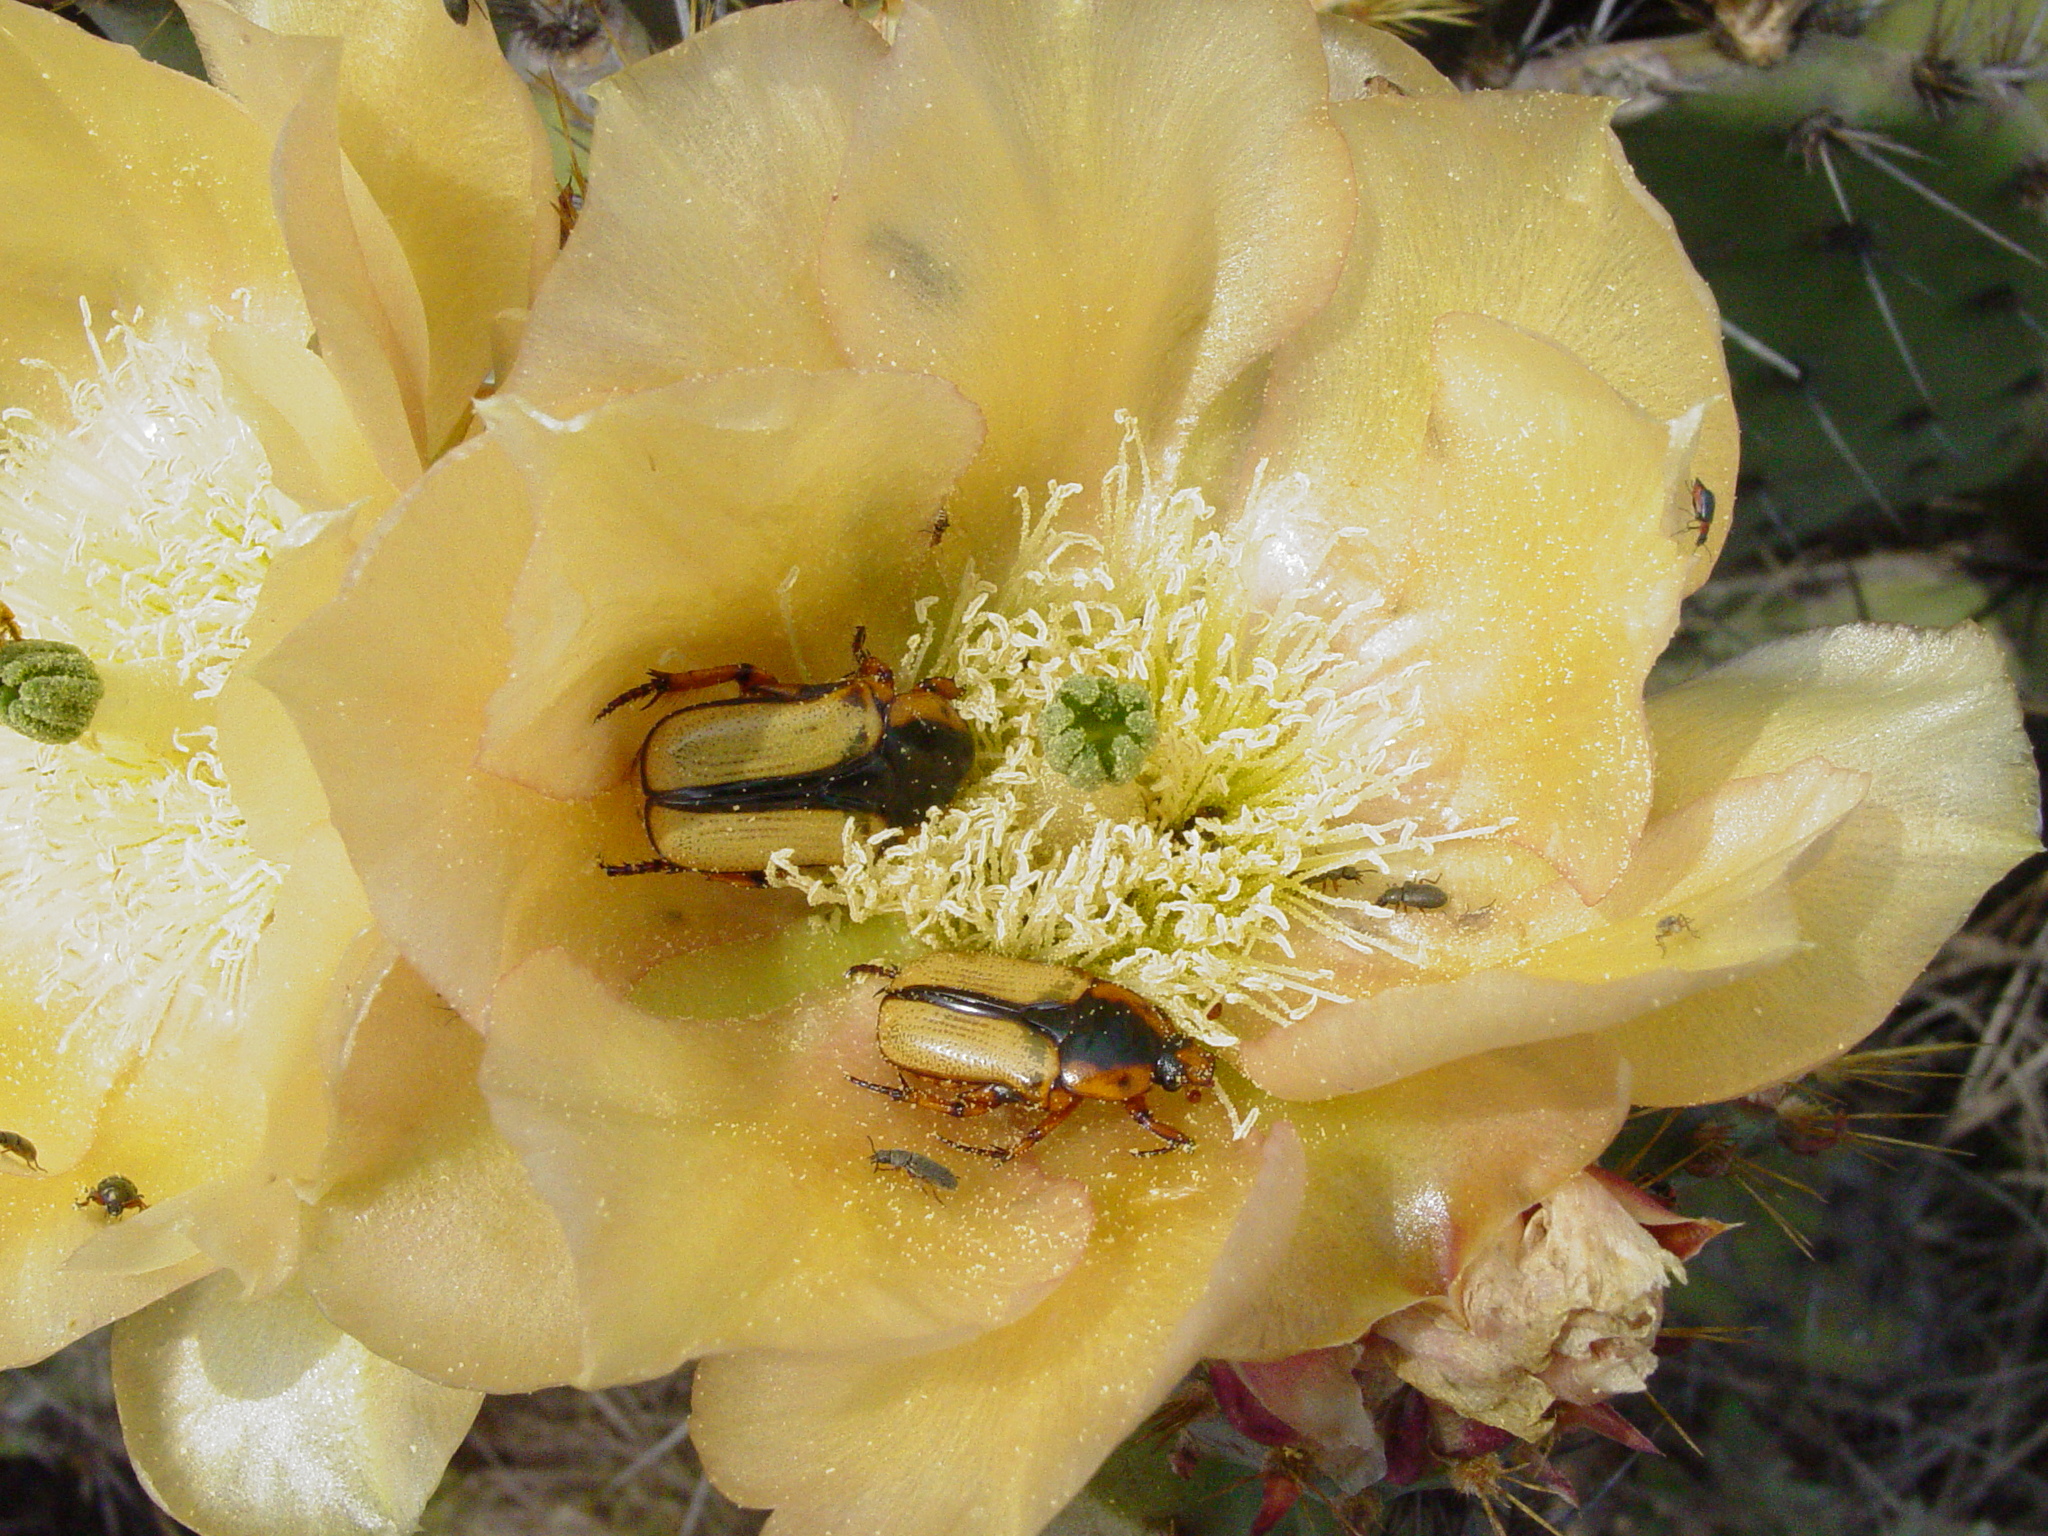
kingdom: Animalia
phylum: Arthropoda
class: Insecta
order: Coleoptera
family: Scarabaeidae
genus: Chlorixanthe
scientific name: Chlorixanthe chapini
